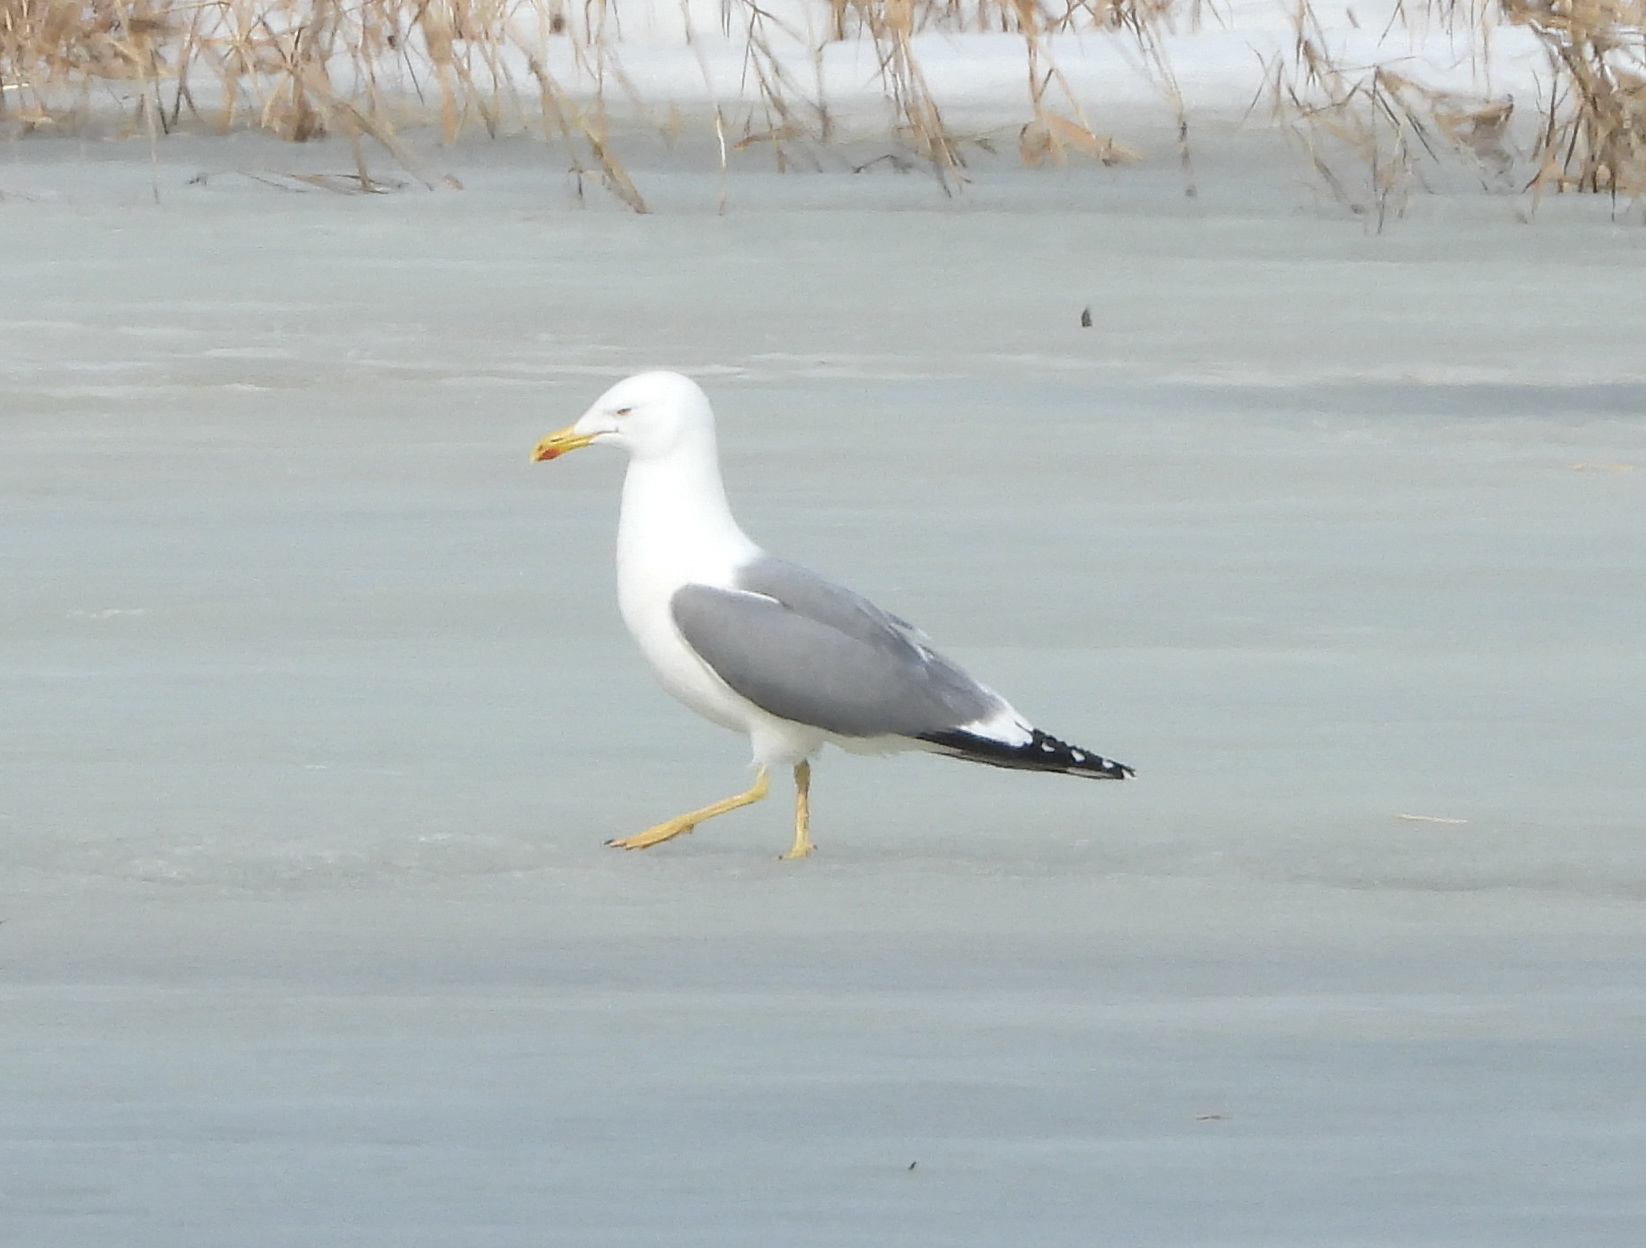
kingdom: Animalia
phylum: Chordata
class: Aves
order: Charadriiformes
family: Laridae
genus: Larus
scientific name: Larus cachinnans
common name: Caspian gull
